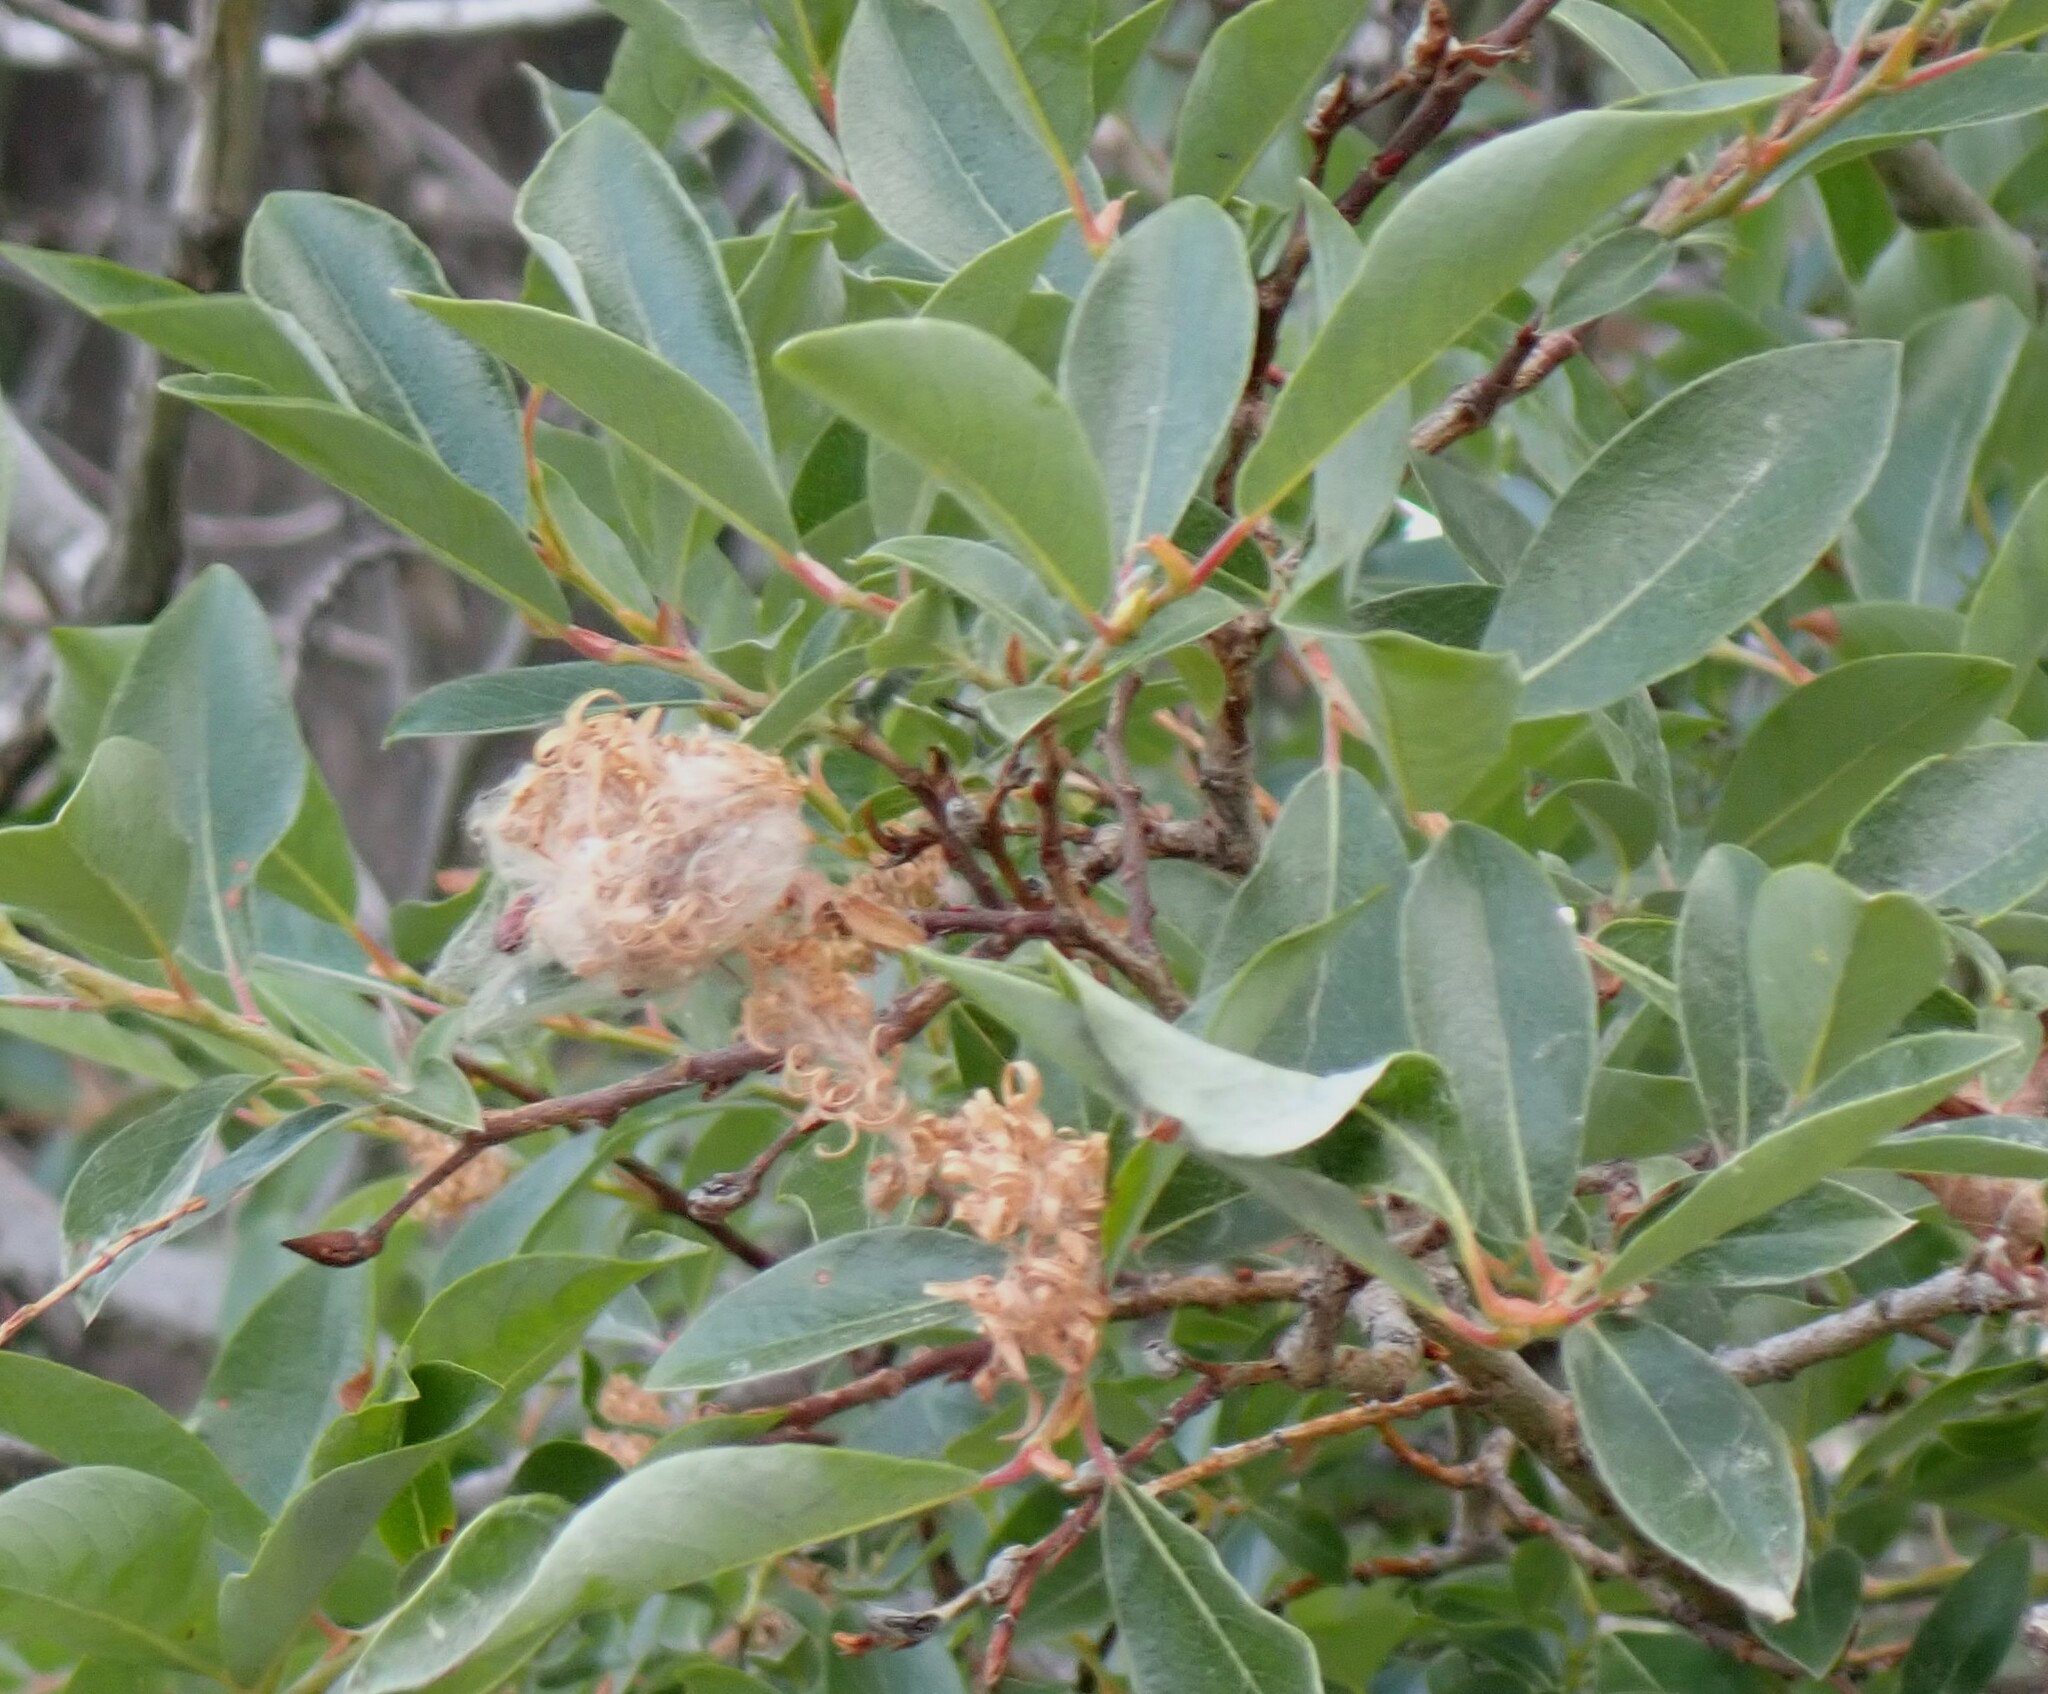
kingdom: Plantae
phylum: Tracheophyta
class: Magnoliopsida
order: Malpighiales
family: Salicaceae
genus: Salix
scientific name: Salix bebbiana
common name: Bebb's willow
